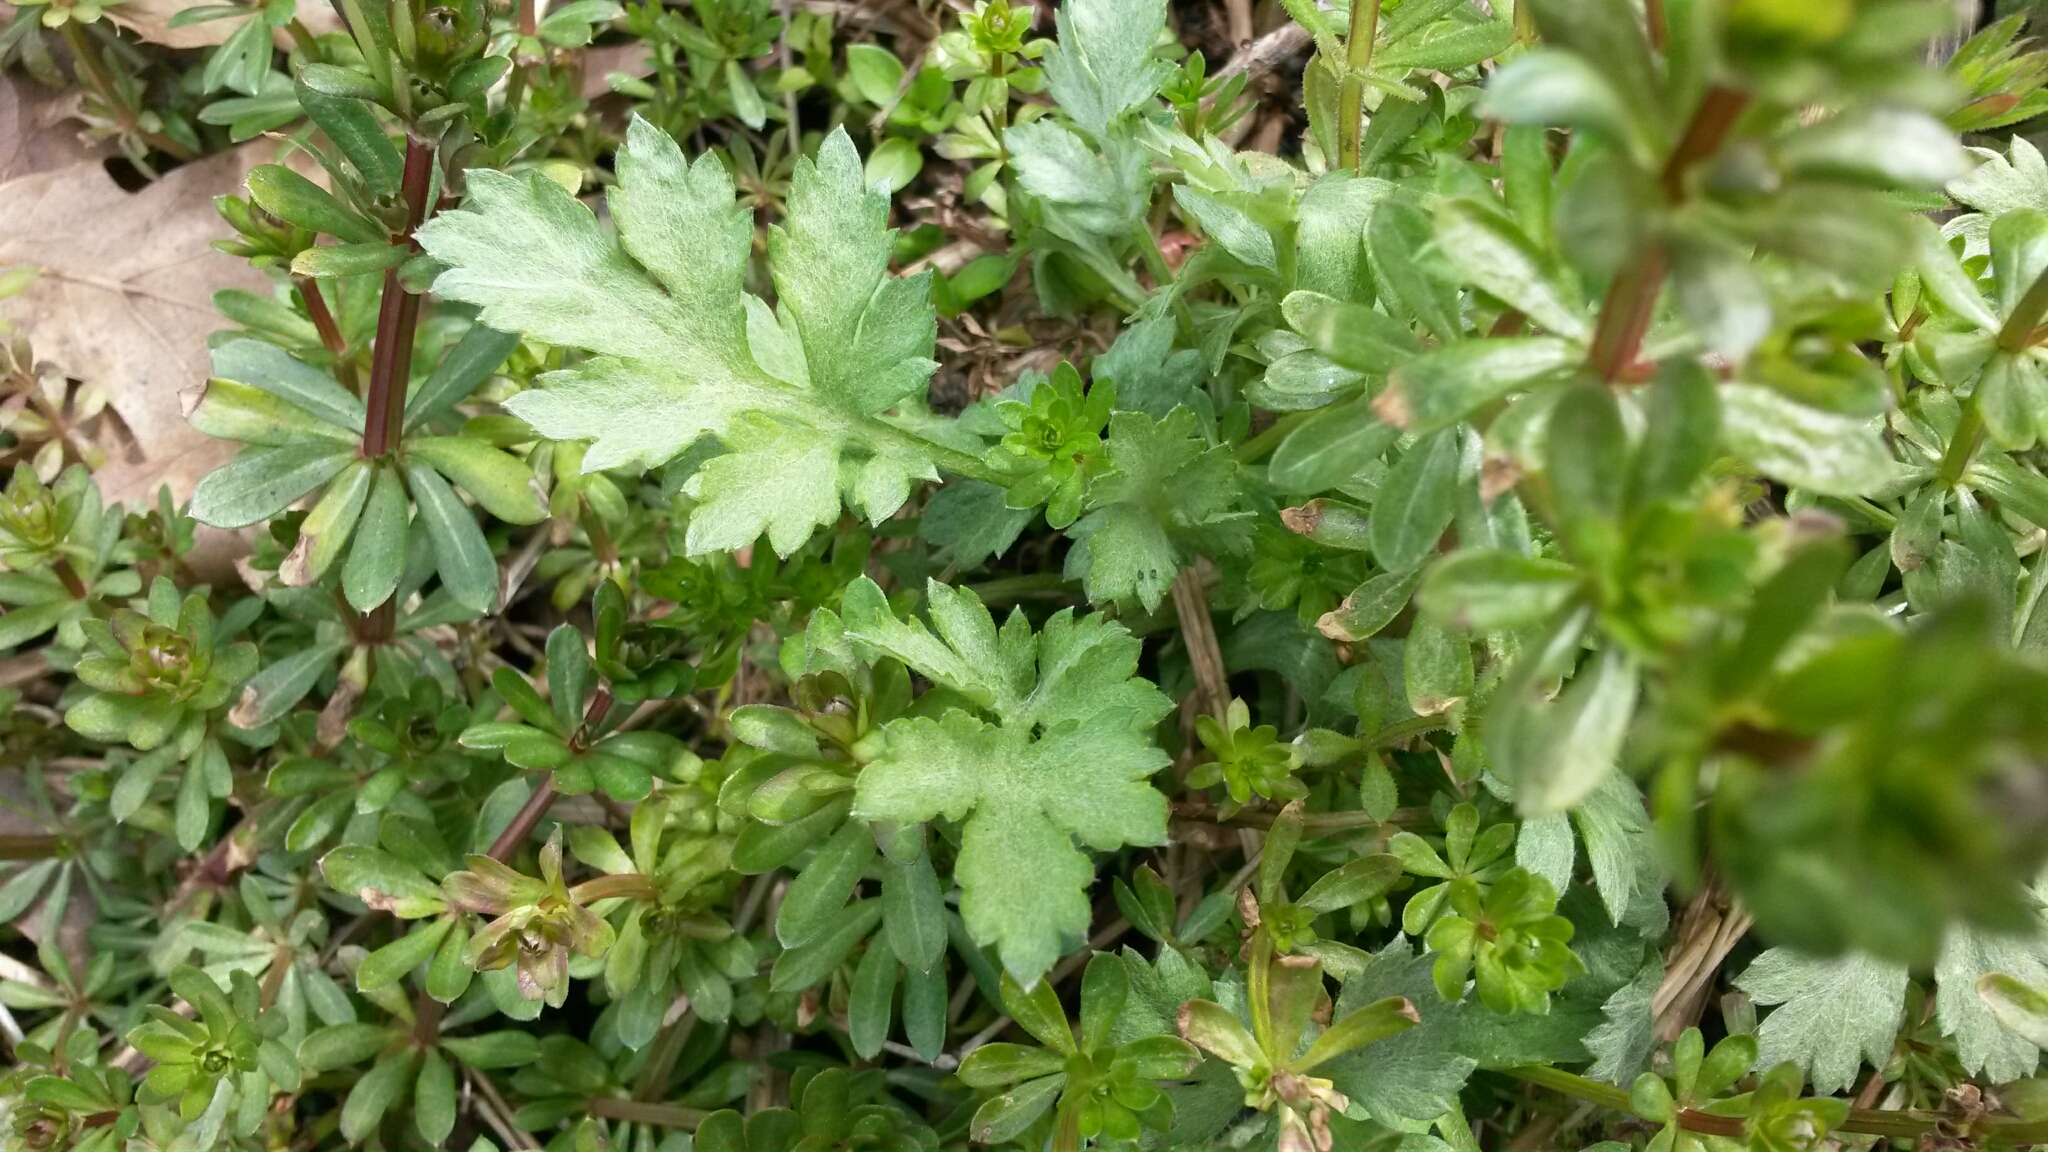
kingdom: Plantae
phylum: Tracheophyta
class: Magnoliopsida
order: Asterales
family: Asteraceae
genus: Artemisia
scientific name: Artemisia vulgaris
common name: Mugwort
